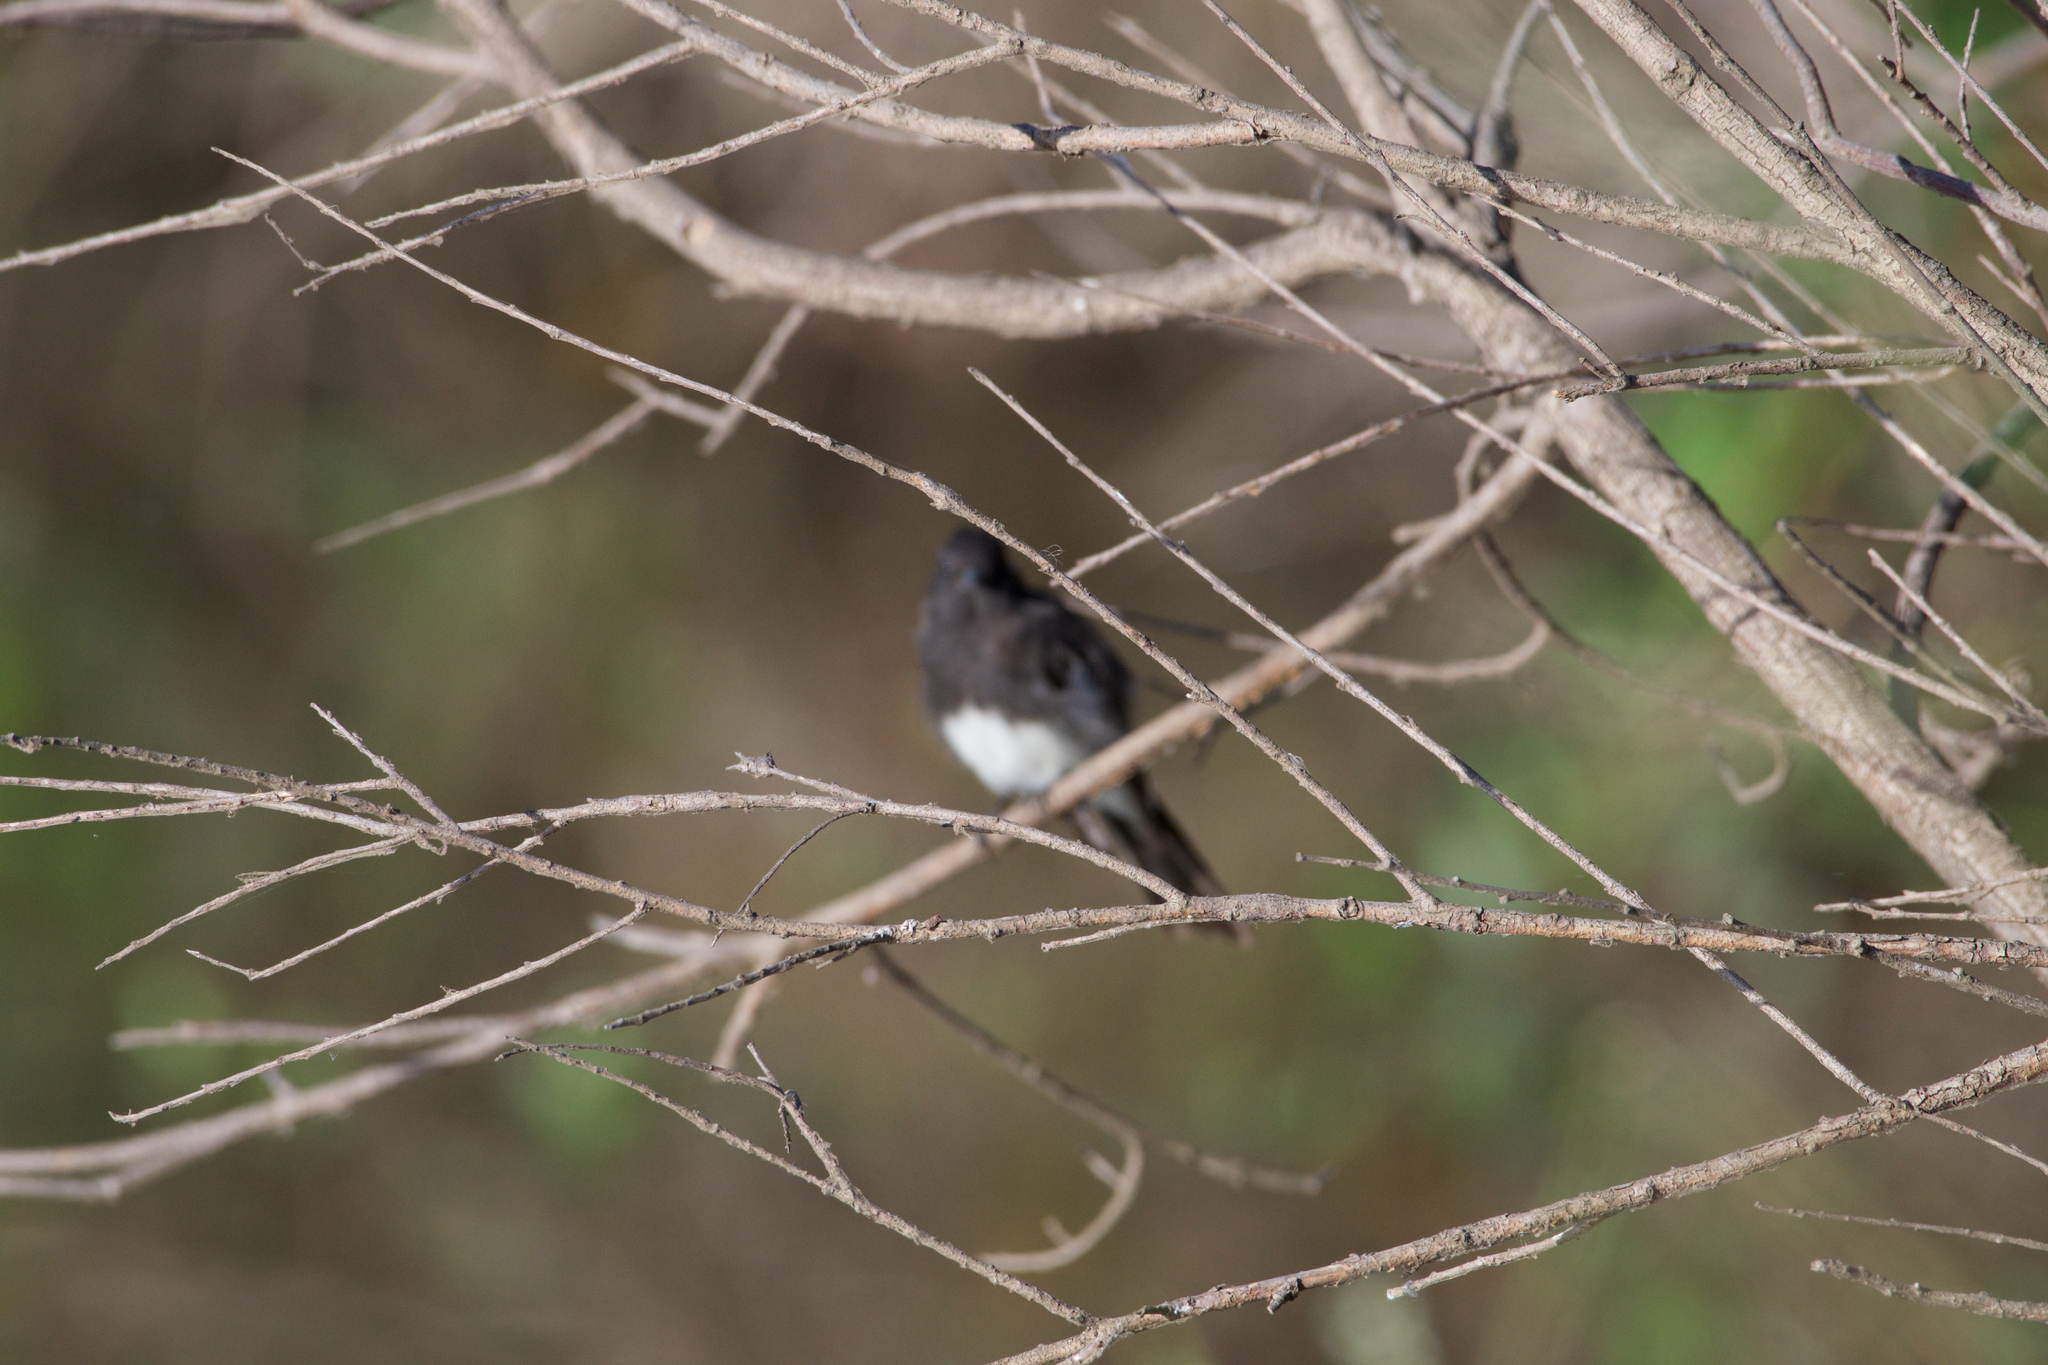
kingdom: Animalia
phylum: Chordata
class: Aves
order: Passeriformes
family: Tyrannidae
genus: Sayornis
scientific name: Sayornis nigricans
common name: Black phoebe
